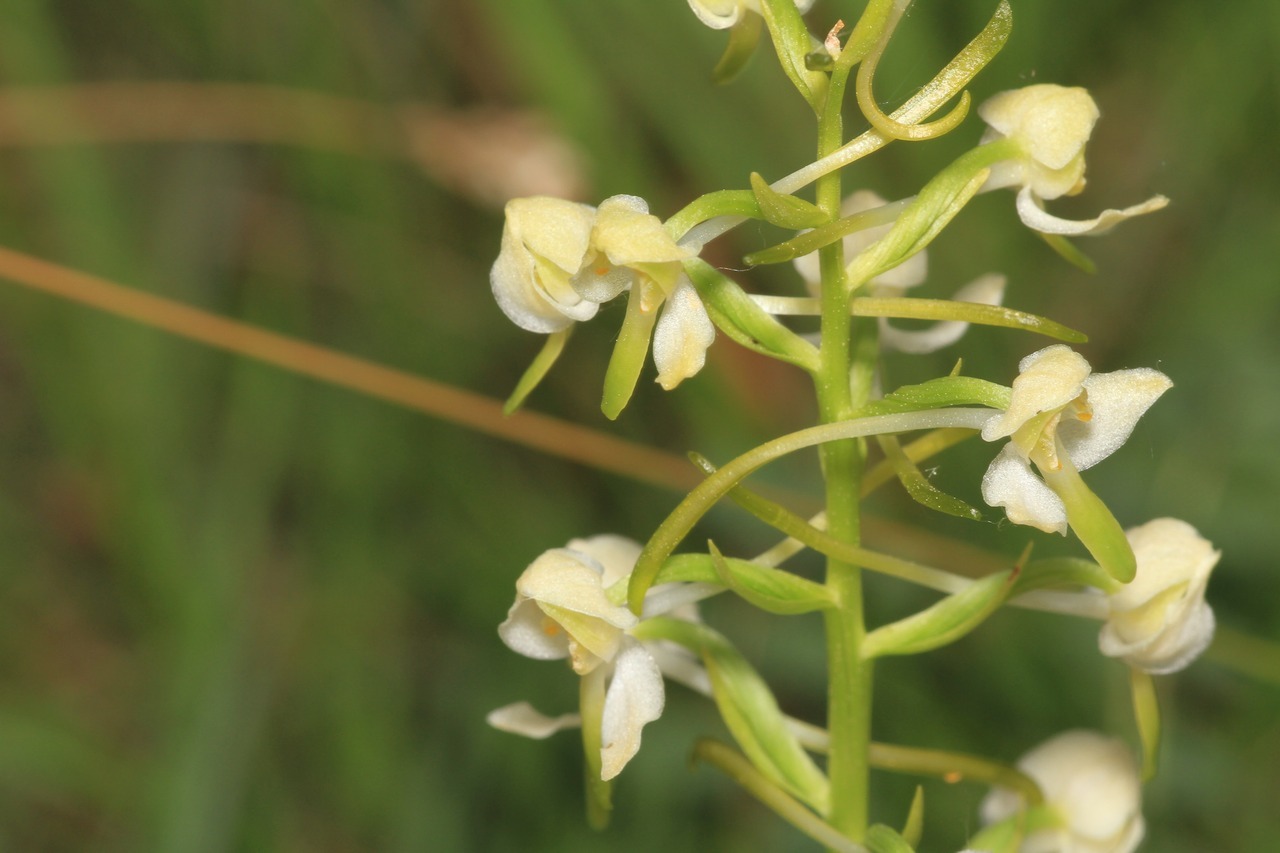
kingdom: Plantae
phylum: Tracheophyta
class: Liliopsida
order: Asparagales
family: Orchidaceae
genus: Platanthera
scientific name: Platanthera chlorantha
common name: Greater butterfly-orchid
